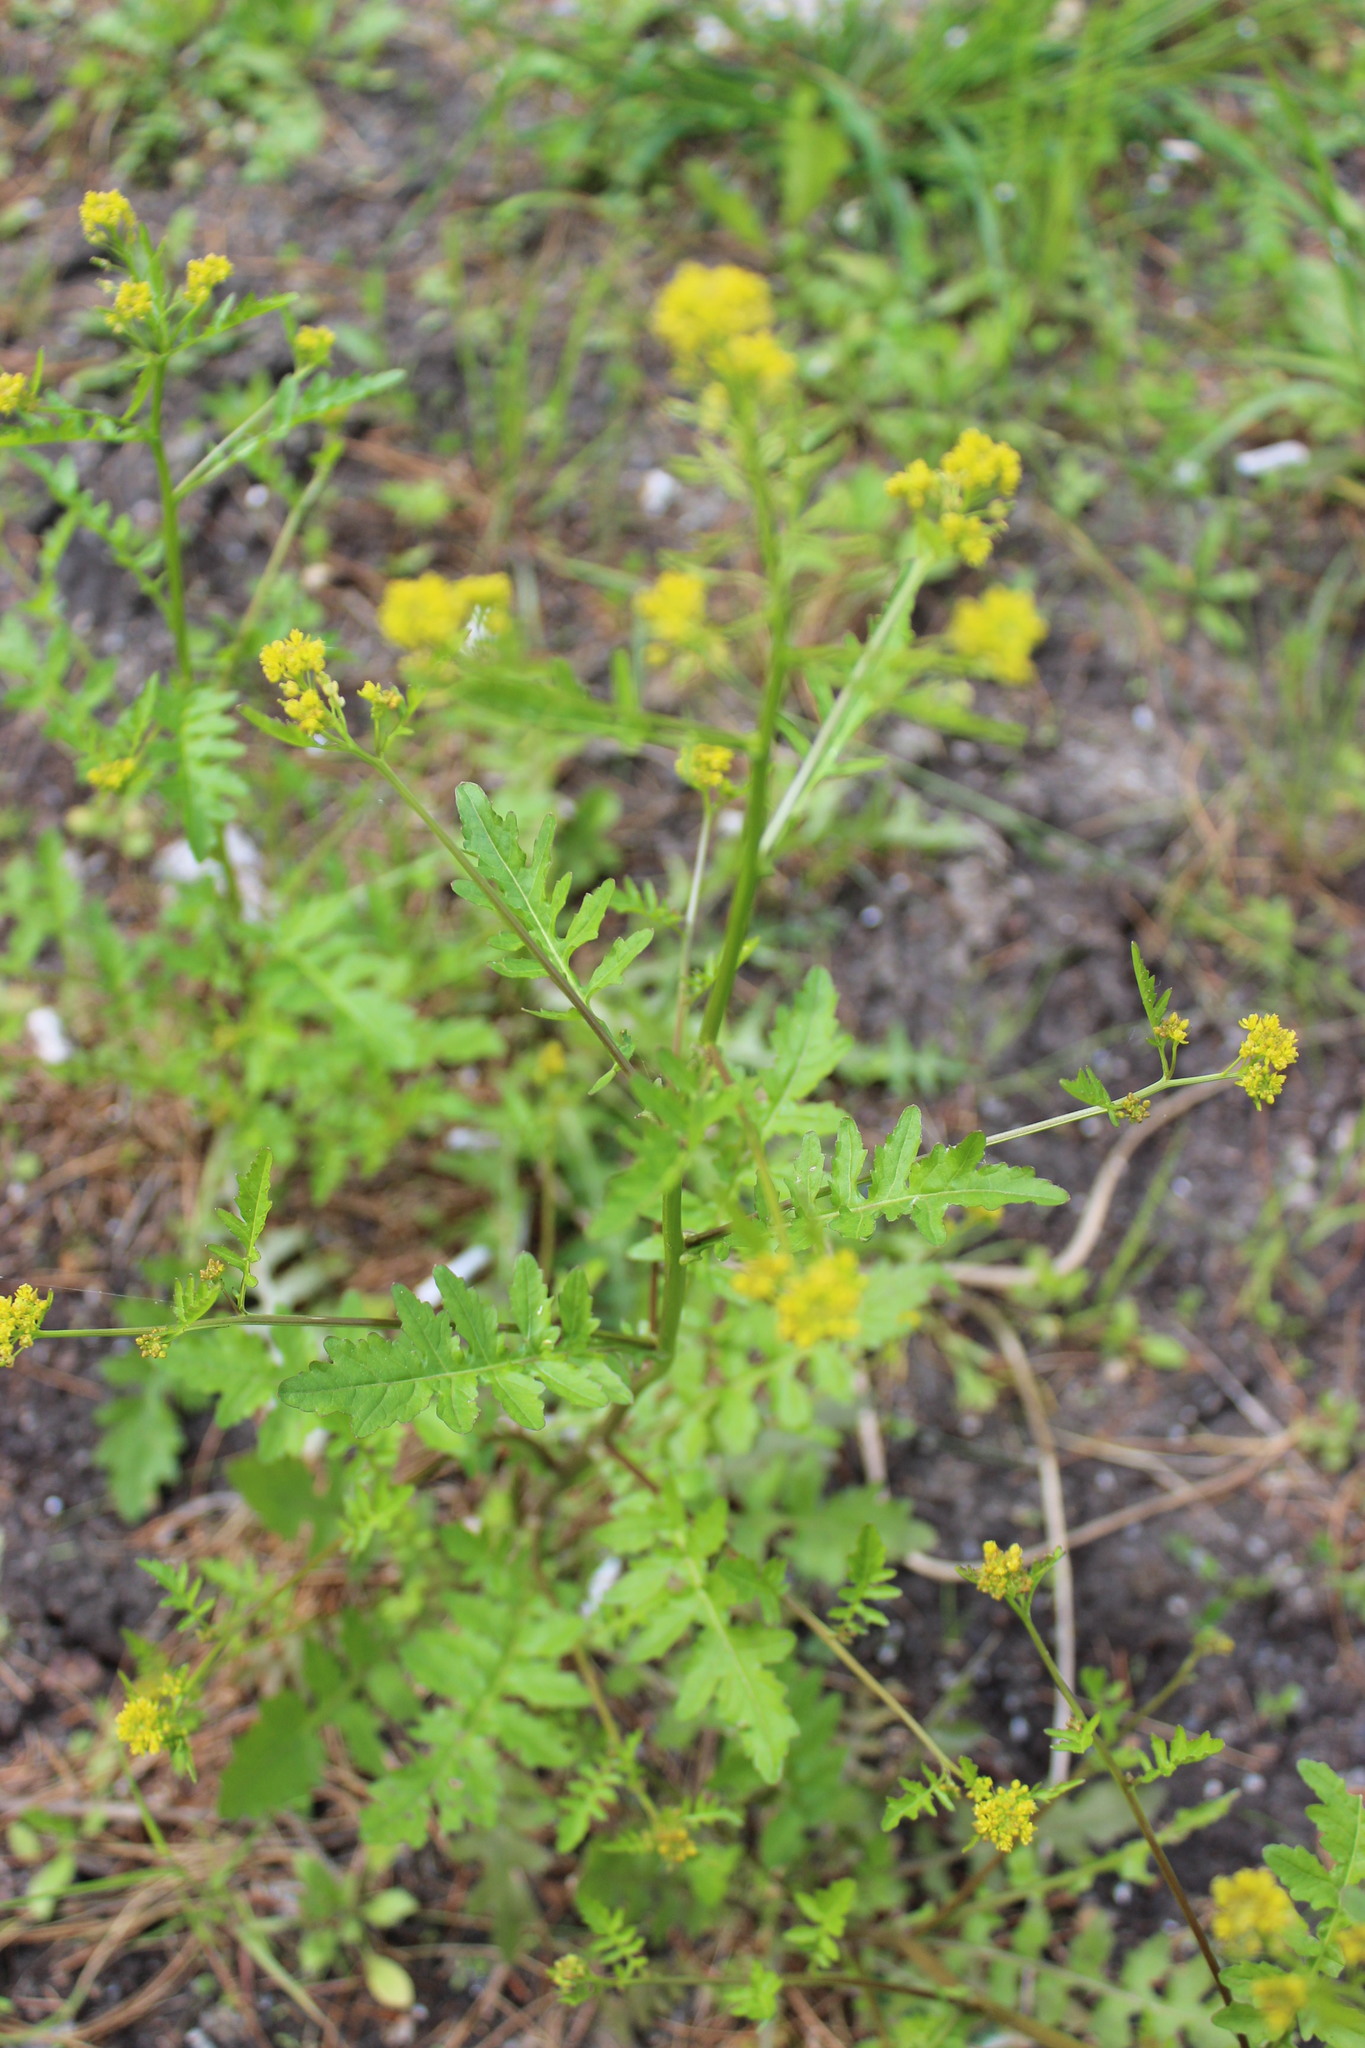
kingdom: Plantae
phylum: Tracheophyta
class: Magnoliopsida
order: Brassicales
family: Brassicaceae
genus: Rorippa
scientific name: Rorippa palustris
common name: Marsh yellow-cress
